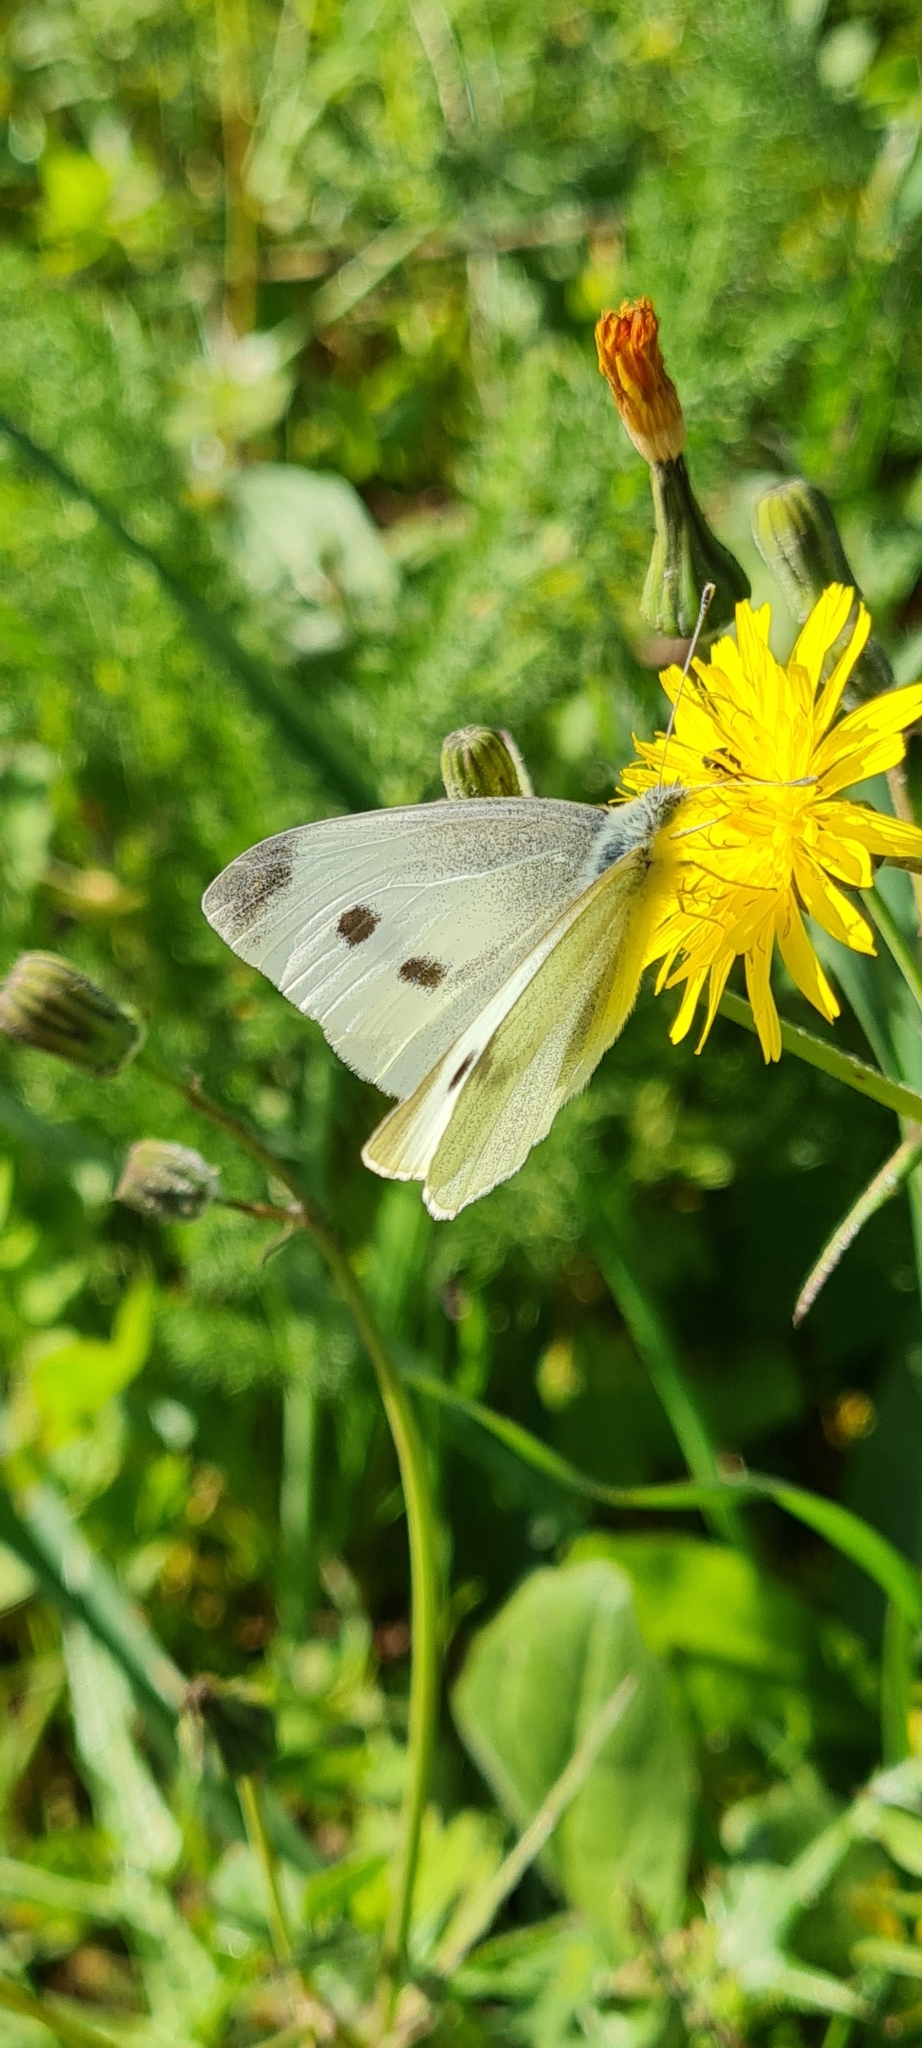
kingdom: Animalia
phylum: Arthropoda
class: Insecta
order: Lepidoptera
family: Pieridae
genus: Pieris
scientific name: Pieris rapae
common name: Small white
